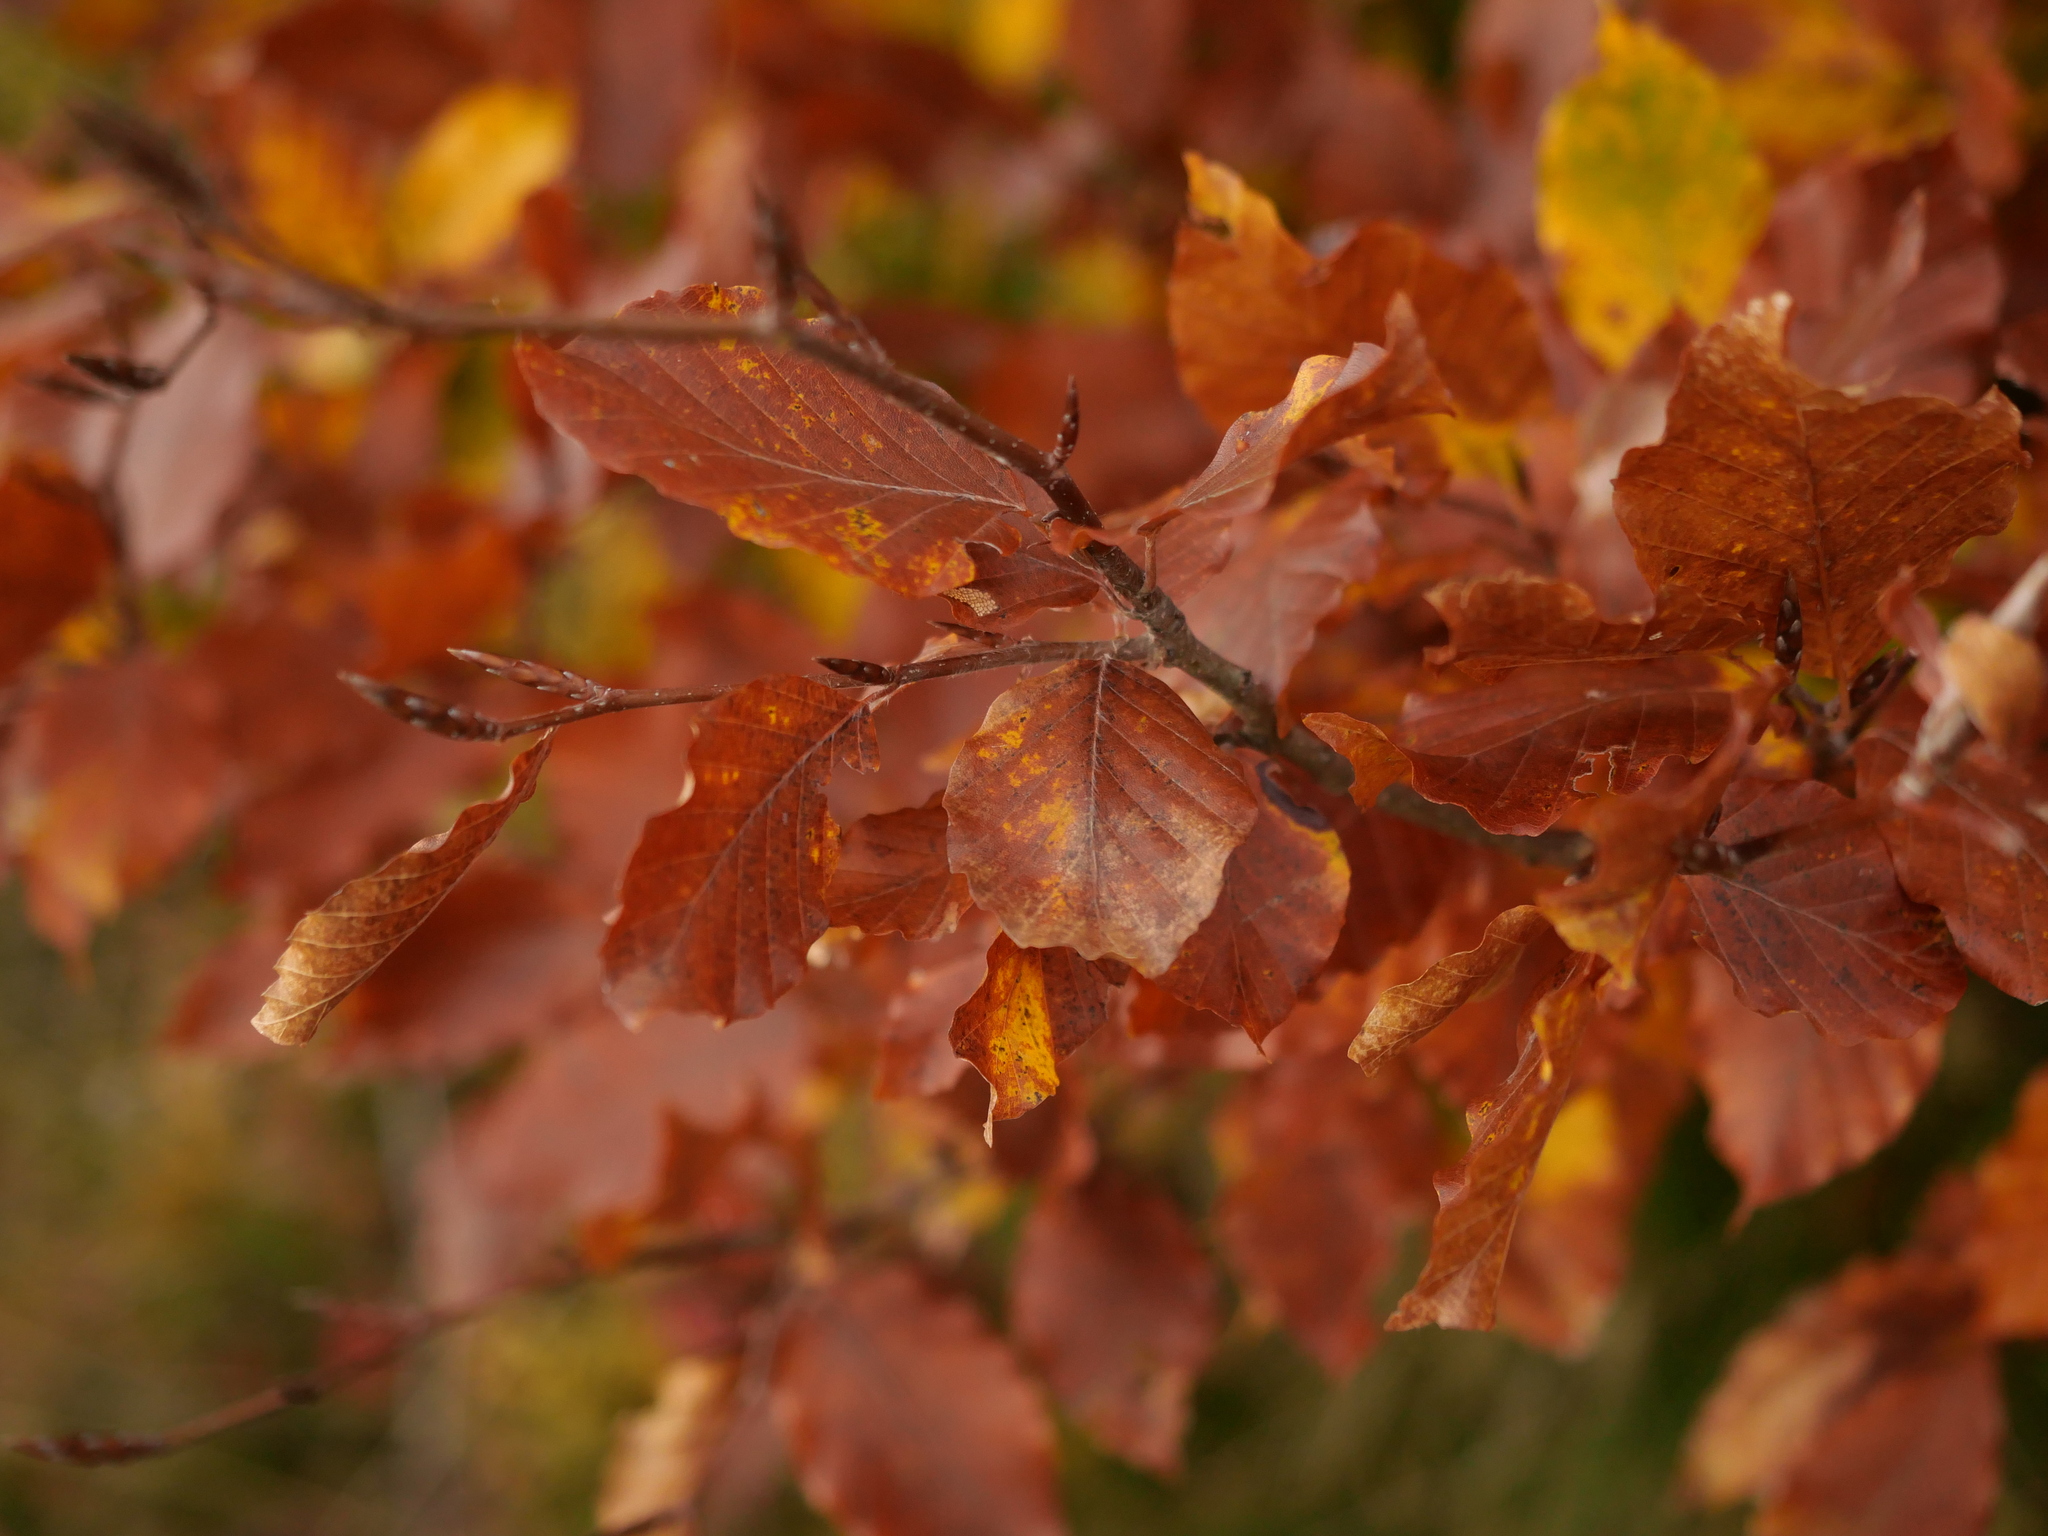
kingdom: Plantae
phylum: Tracheophyta
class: Magnoliopsida
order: Fagales
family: Fagaceae
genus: Fagus
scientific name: Fagus sylvatica
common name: Beech
